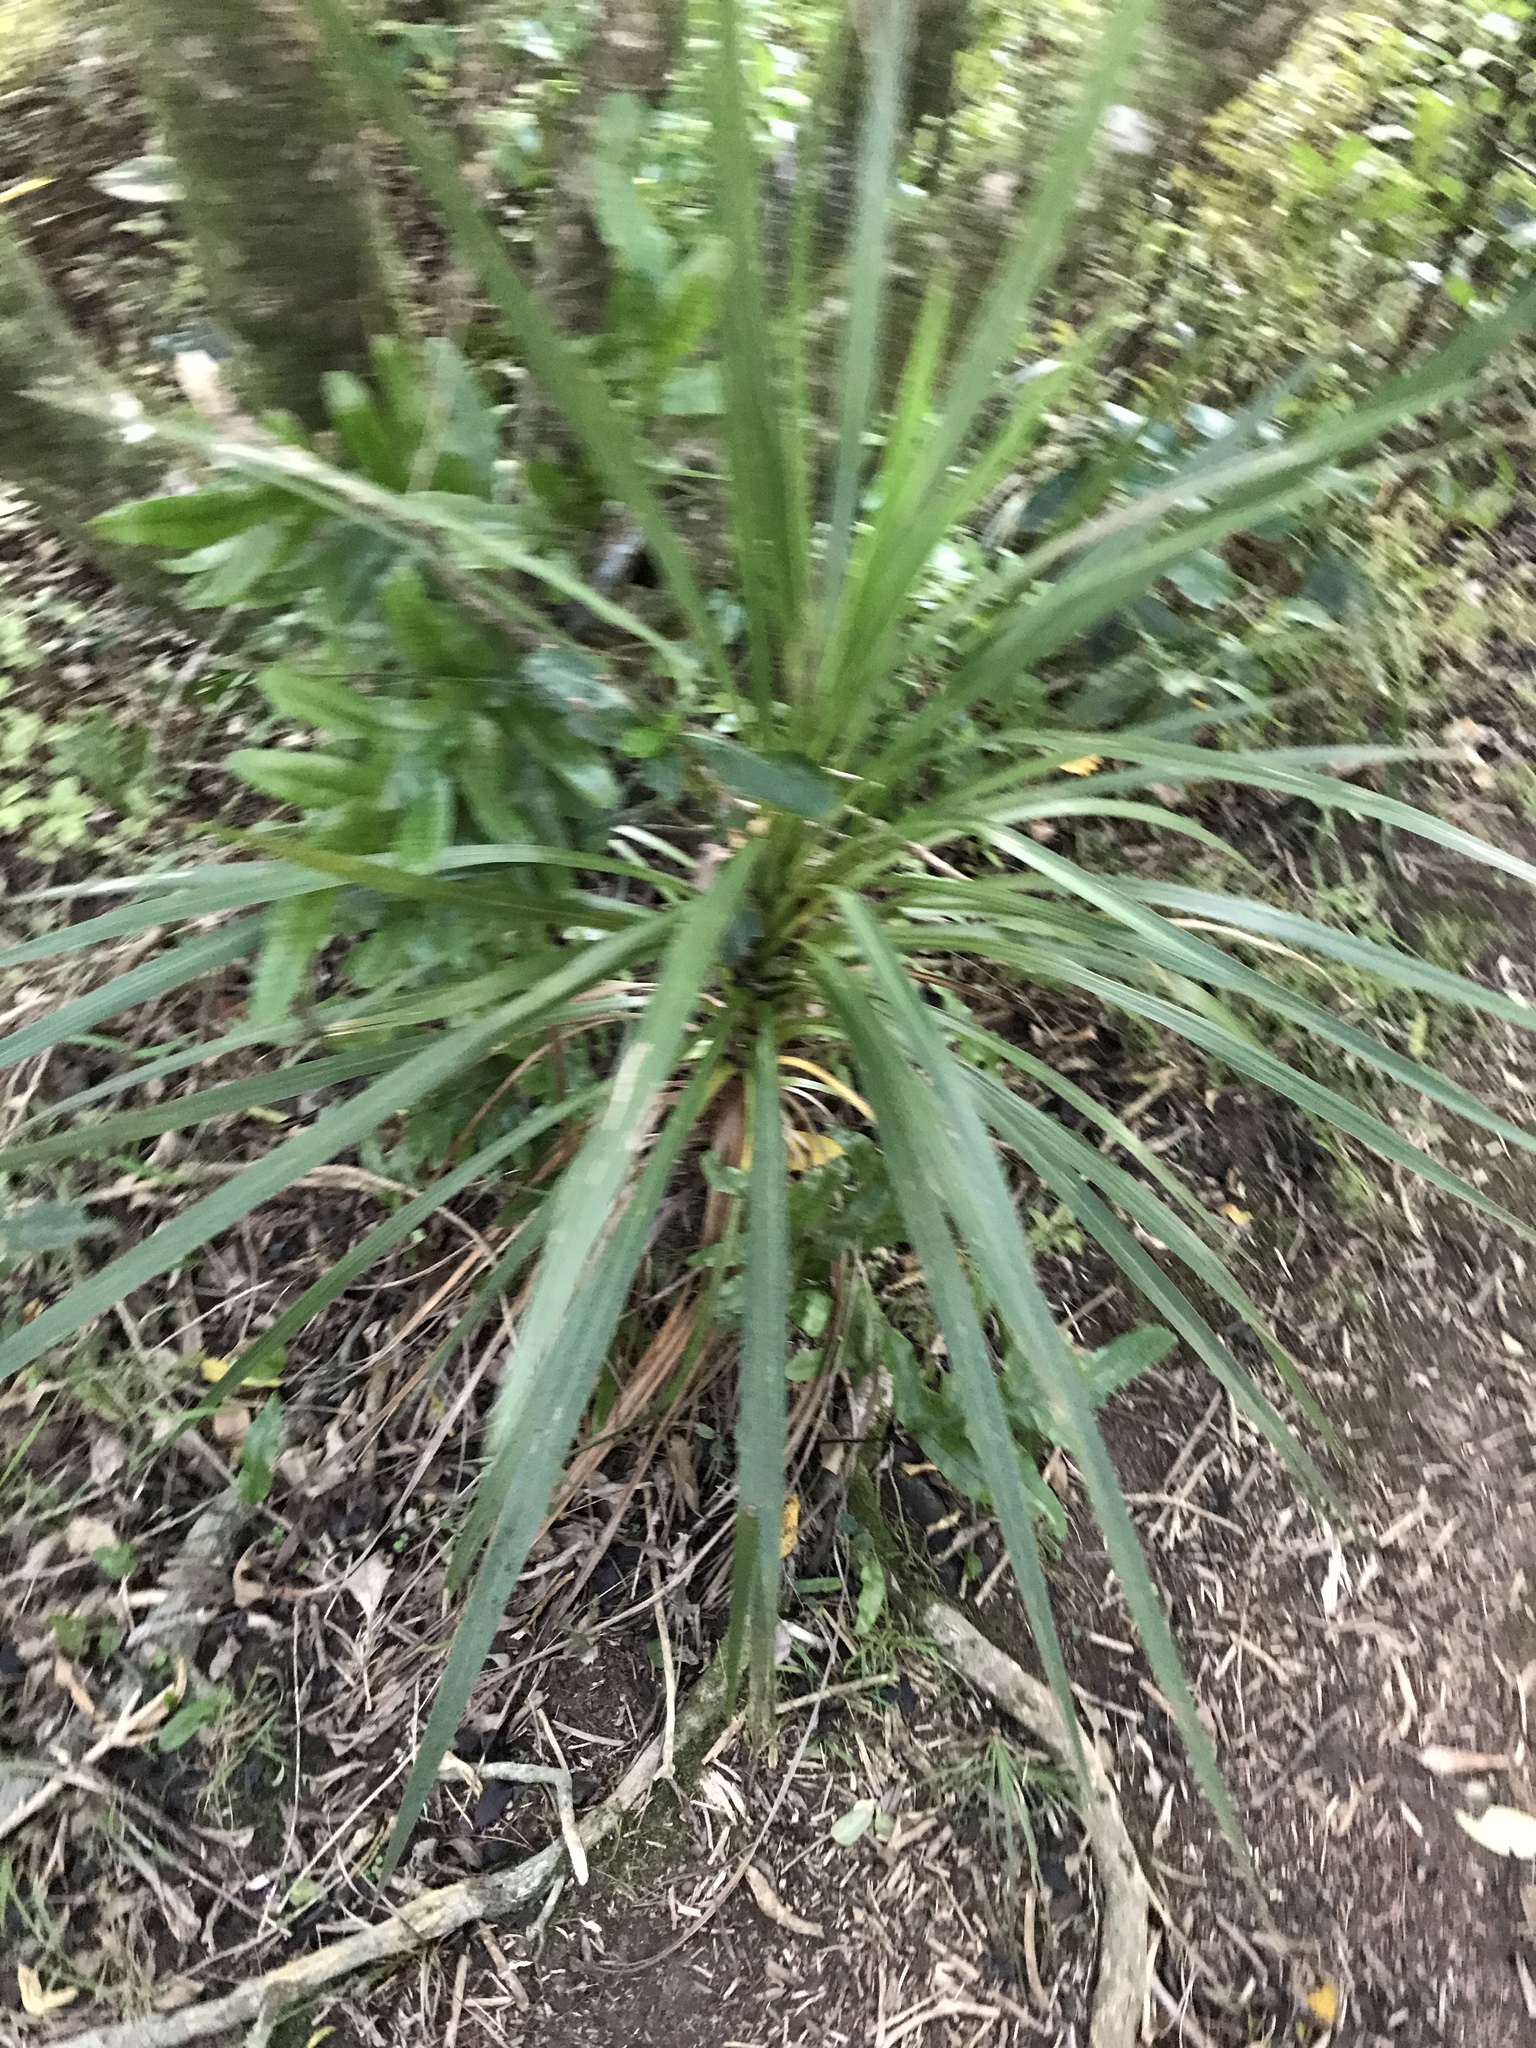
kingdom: Plantae
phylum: Tracheophyta
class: Liliopsida
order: Asparagales
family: Asparagaceae
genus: Cordyline
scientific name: Cordyline australis
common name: Cabbage-palm
